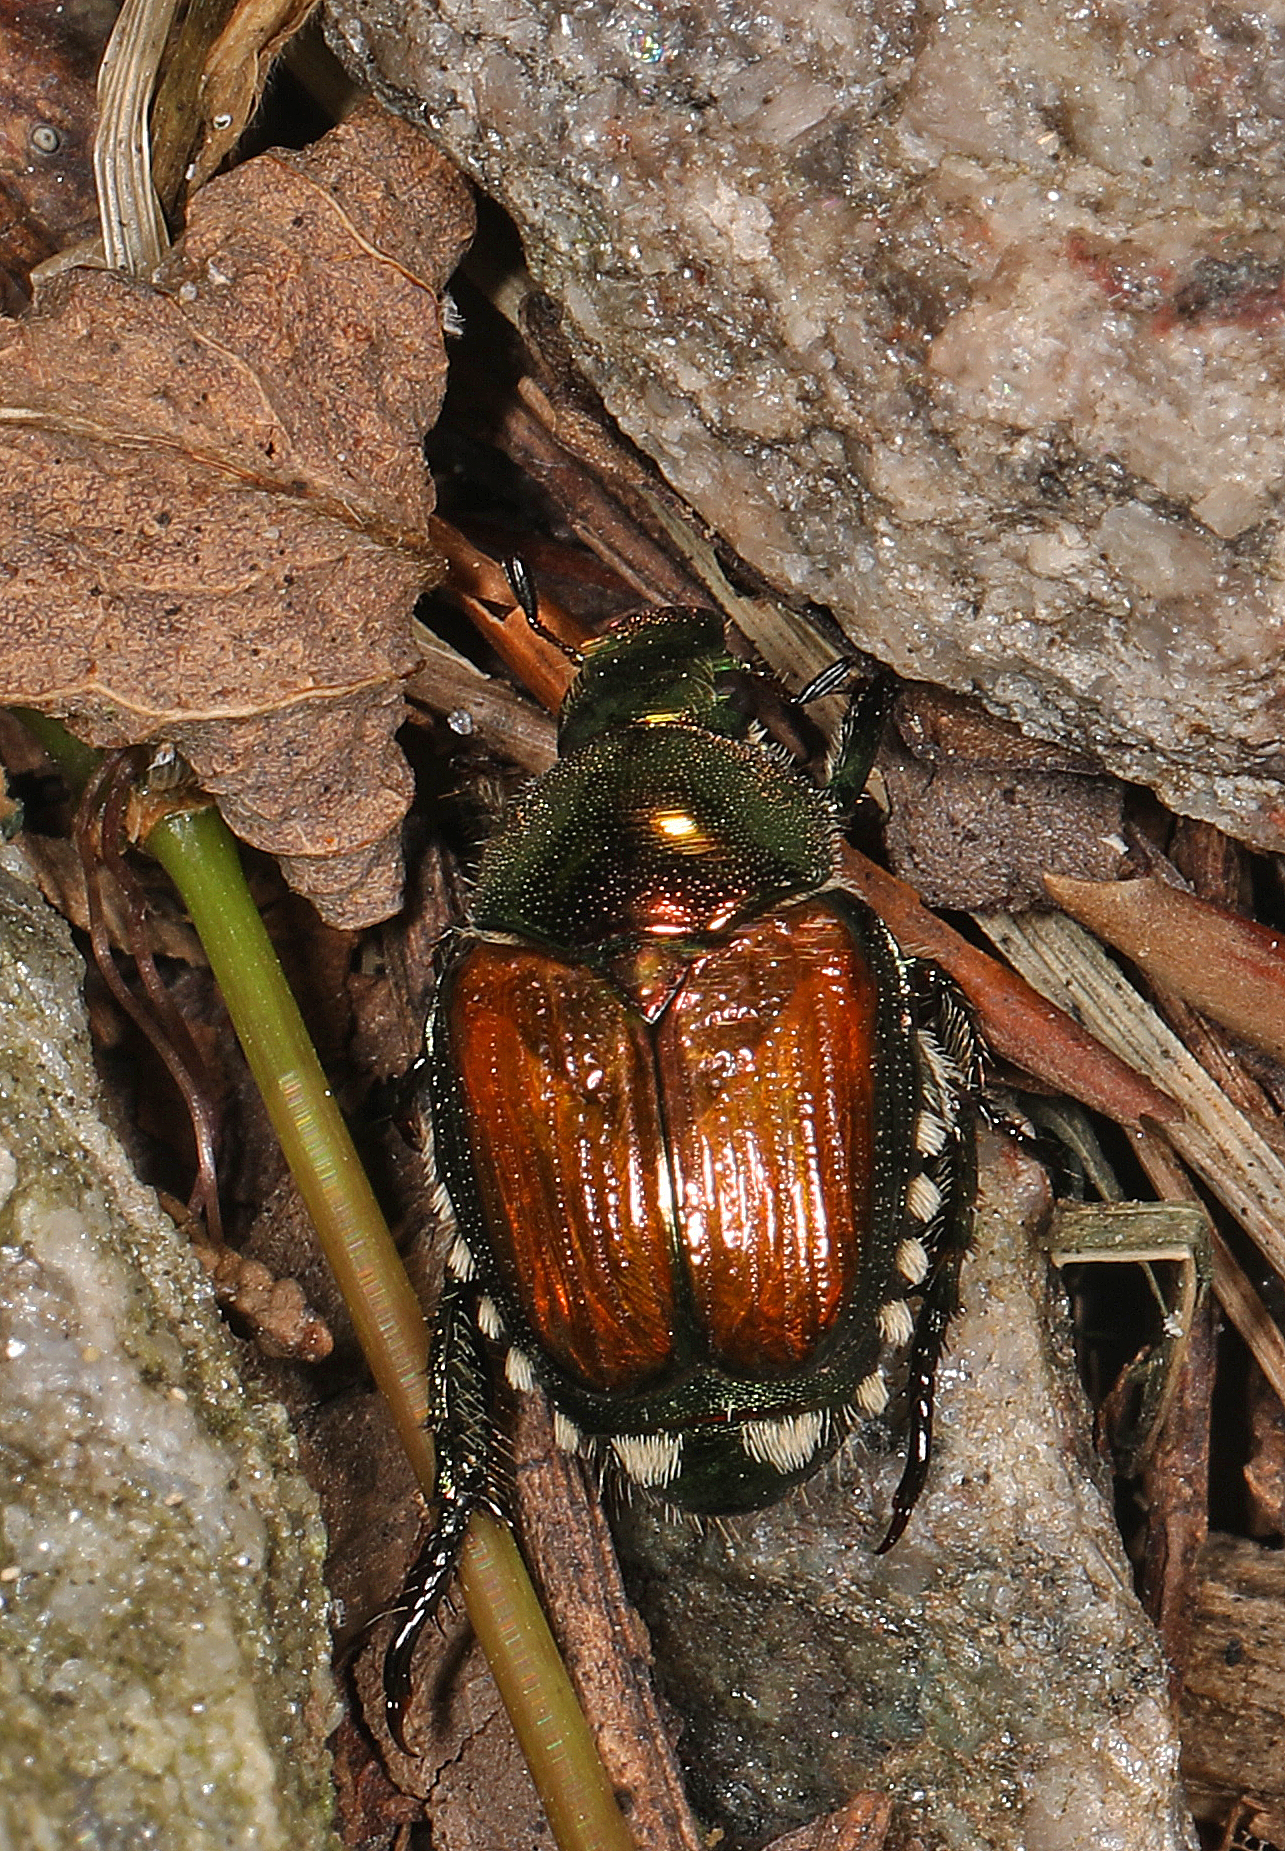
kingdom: Animalia
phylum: Arthropoda
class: Insecta
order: Coleoptera
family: Scarabaeidae
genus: Popillia
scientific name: Popillia japonica
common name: Japanese beetle
